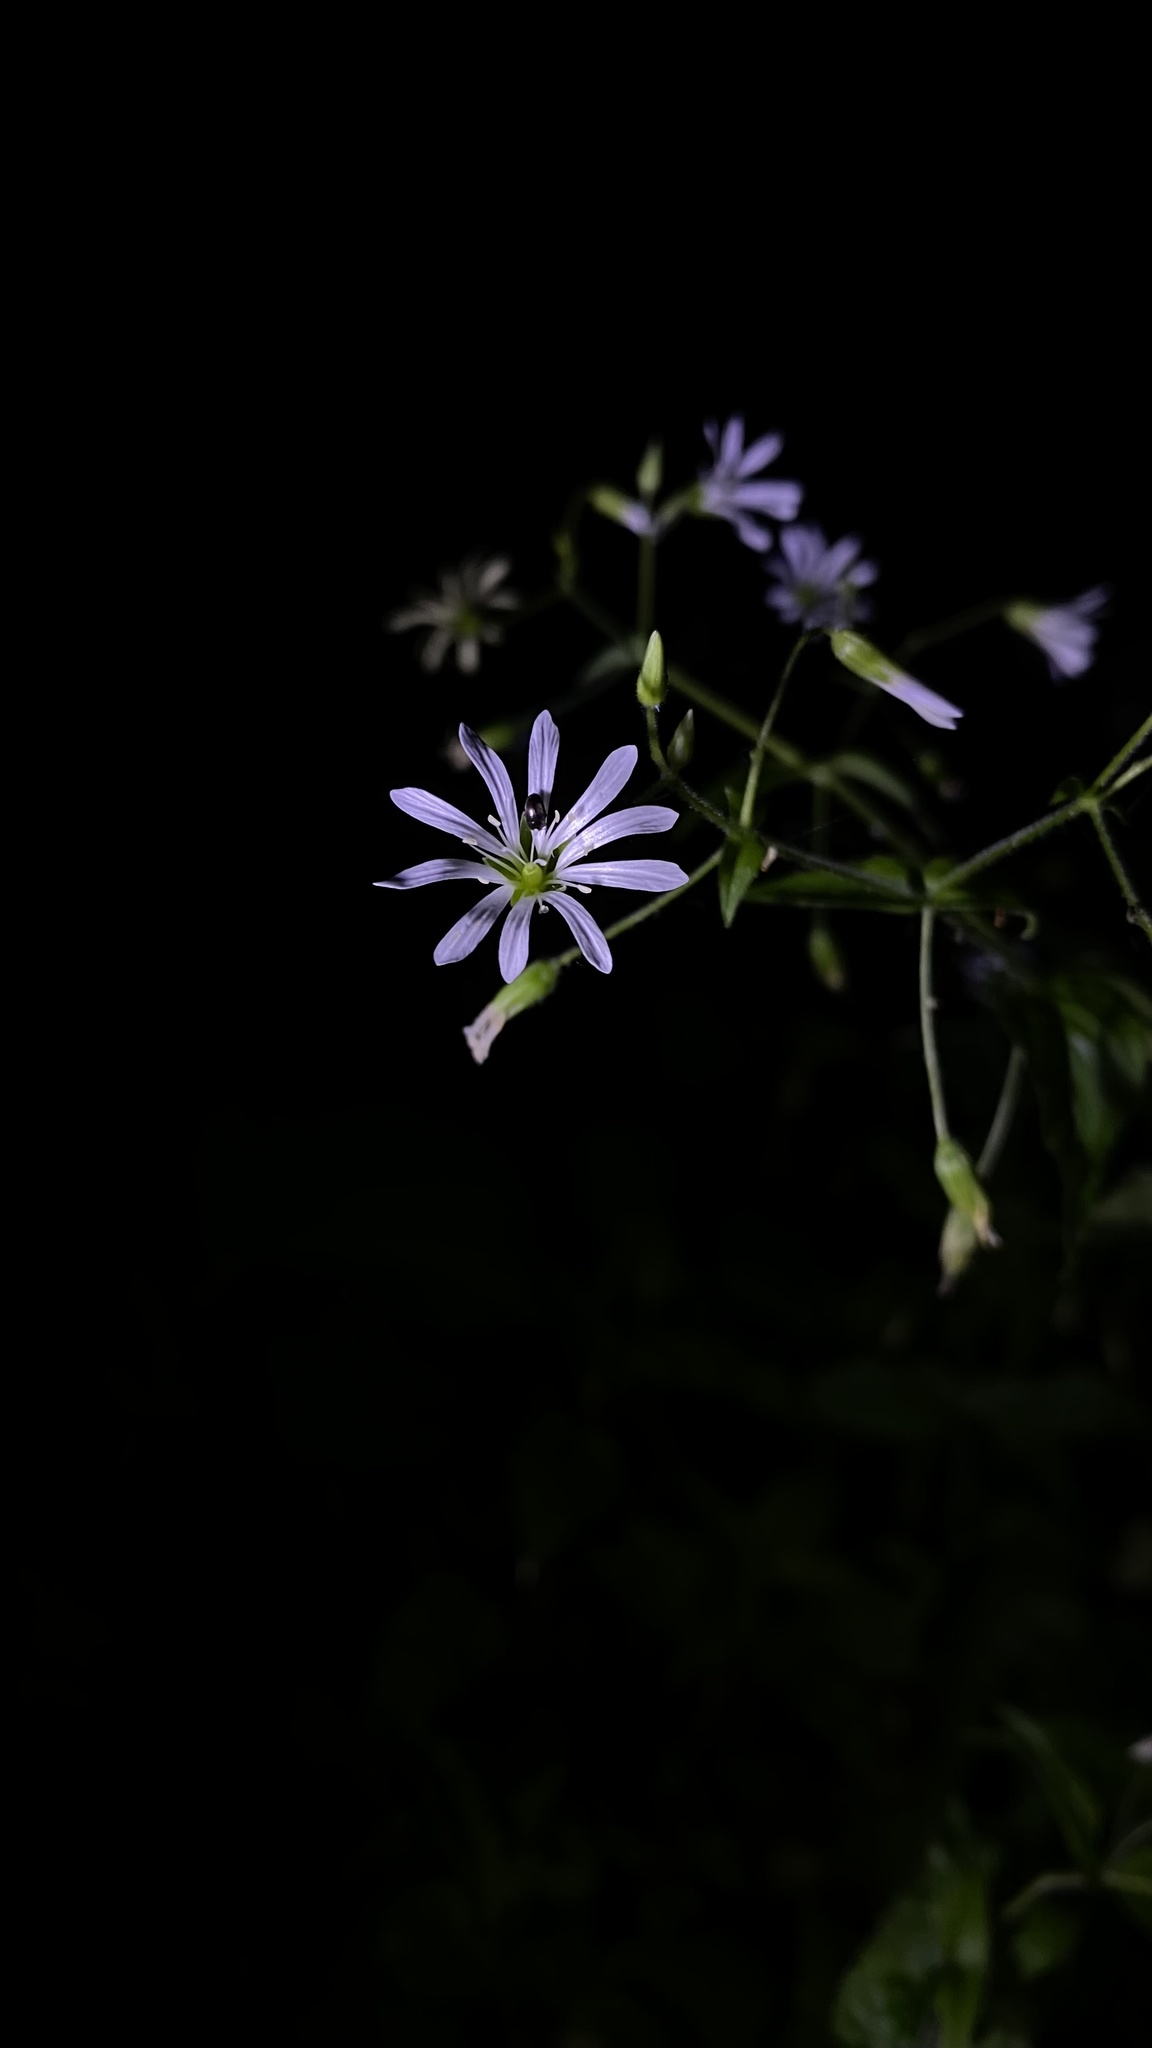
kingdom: Plantae
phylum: Tracheophyta
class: Magnoliopsida
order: Caryophyllales
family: Caryophyllaceae
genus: Stellaria
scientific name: Stellaria nemorum
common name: Wood stitchwort
